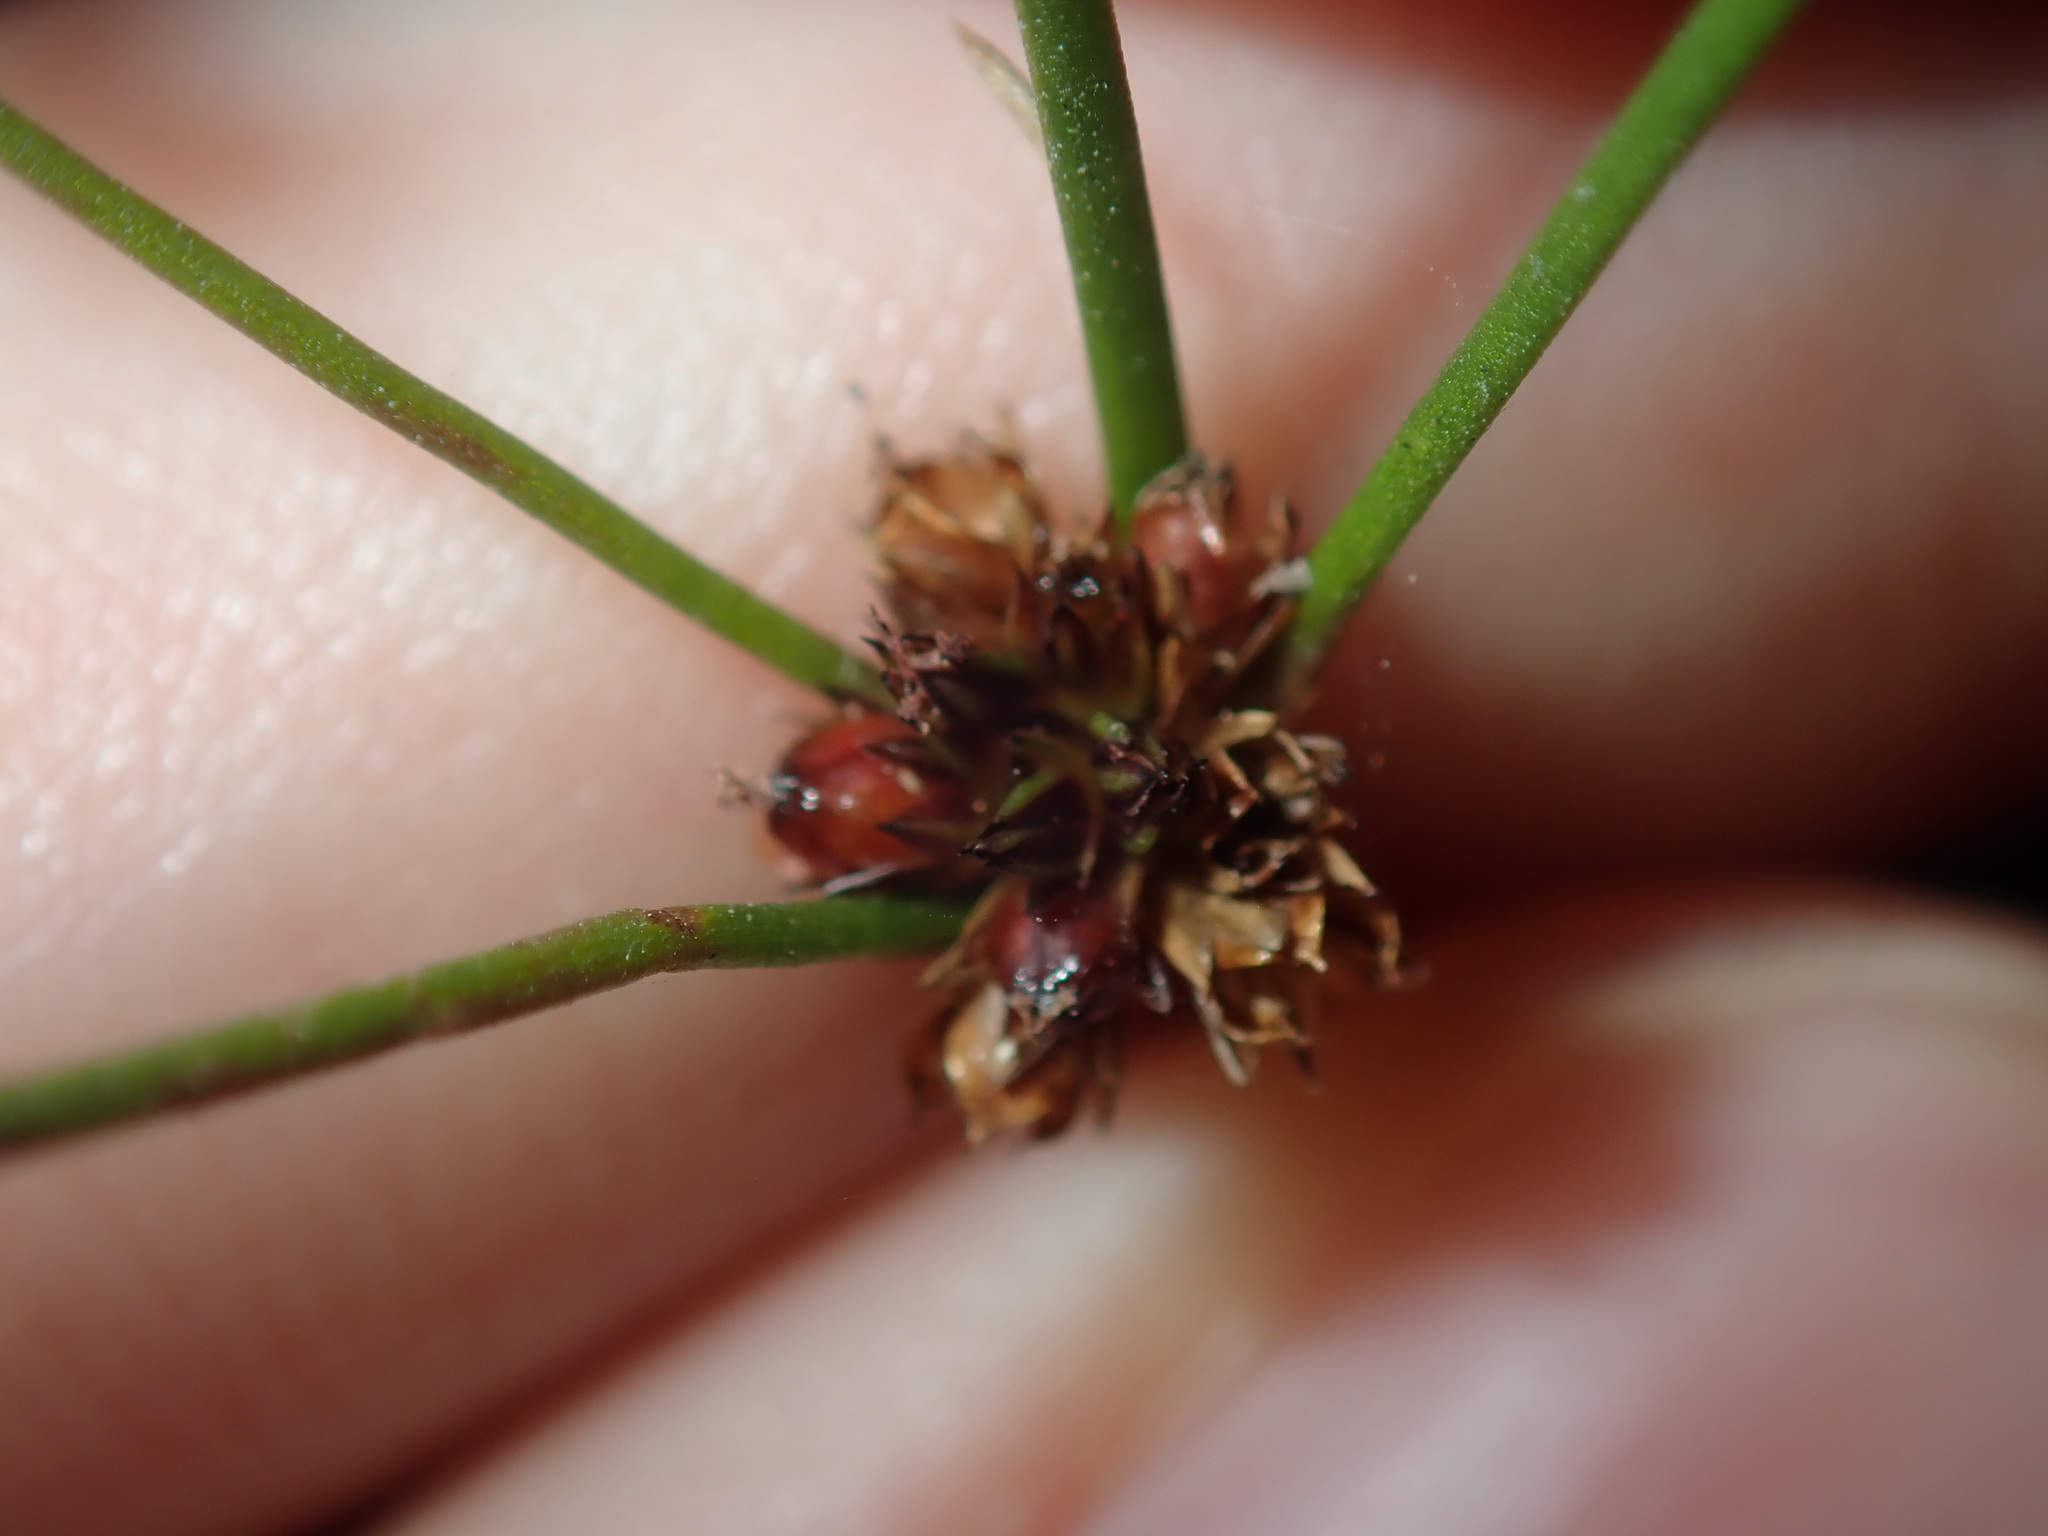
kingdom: Plantae
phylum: Tracheophyta
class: Liliopsida
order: Poales
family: Juncaceae
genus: Juncus
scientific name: Juncus planifolius
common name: Broadleaf rush
